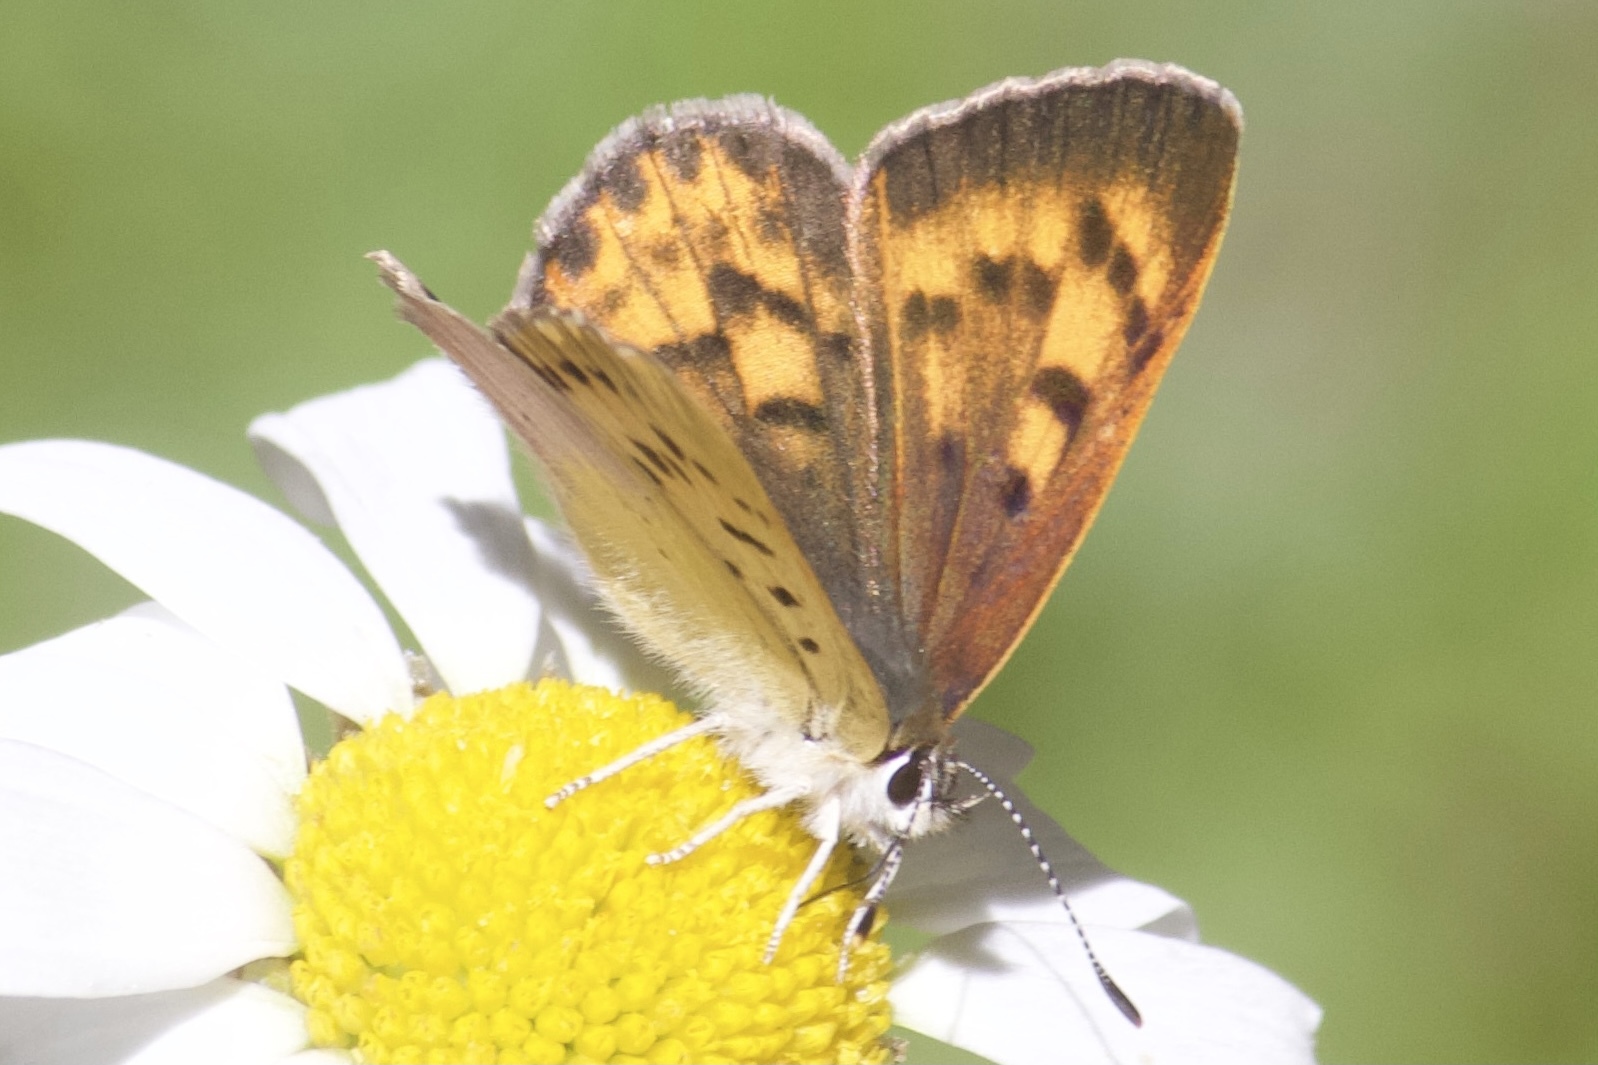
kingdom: Animalia
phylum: Arthropoda
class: Insecta
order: Lepidoptera
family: Lycaenidae
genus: Tharsalea
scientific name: Tharsalea nivalis
